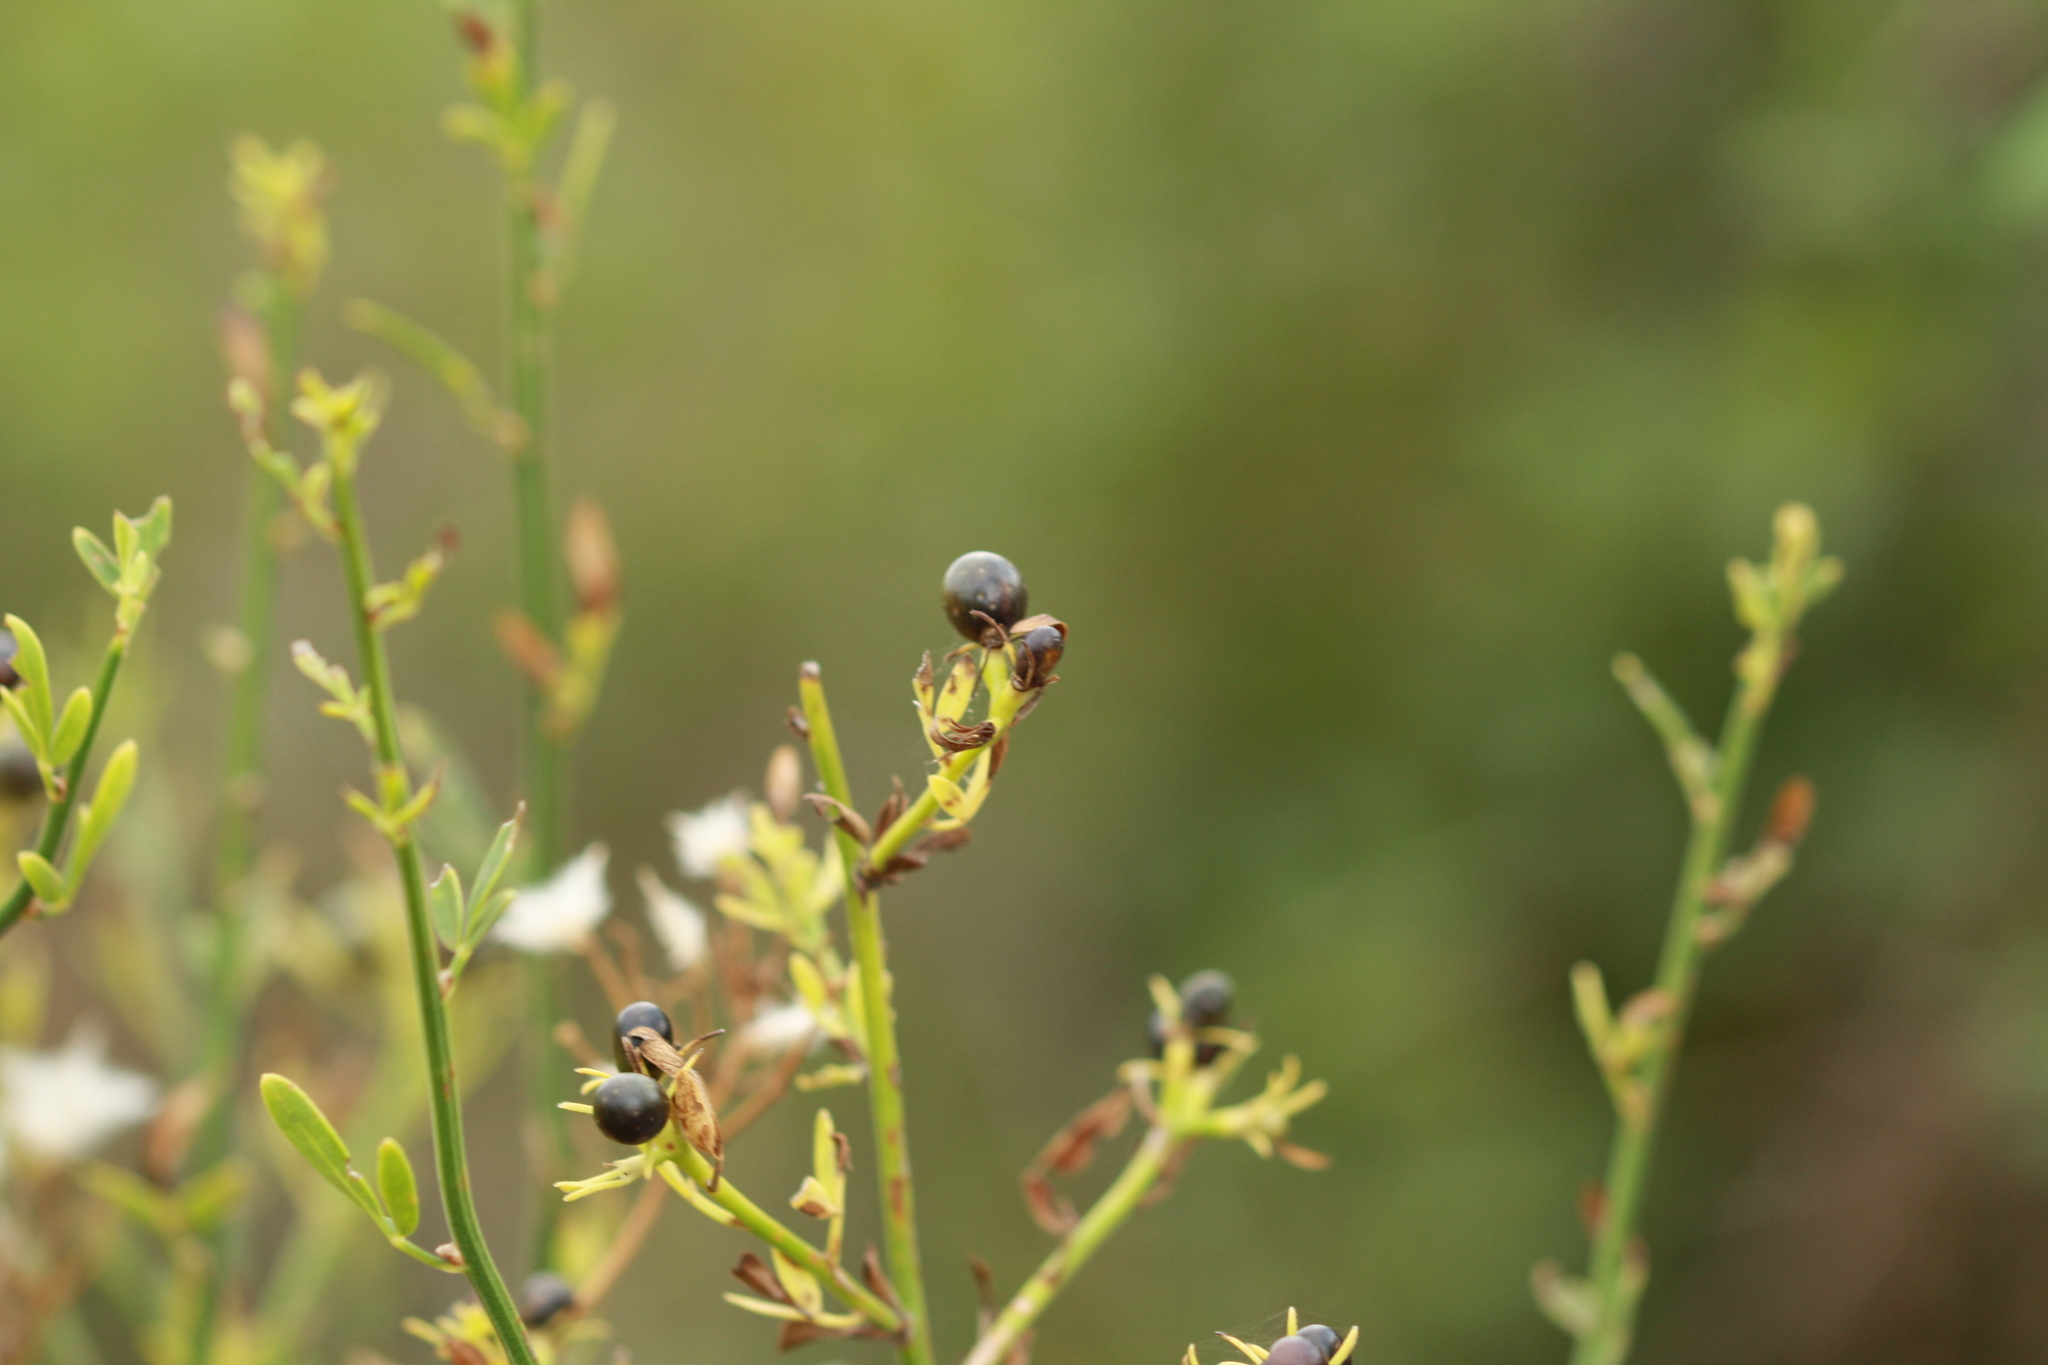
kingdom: Plantae
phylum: Tracheophyta
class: Magnoliopsida
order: Santalales
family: Santalaceae
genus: Osyris
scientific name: Osyris alba
